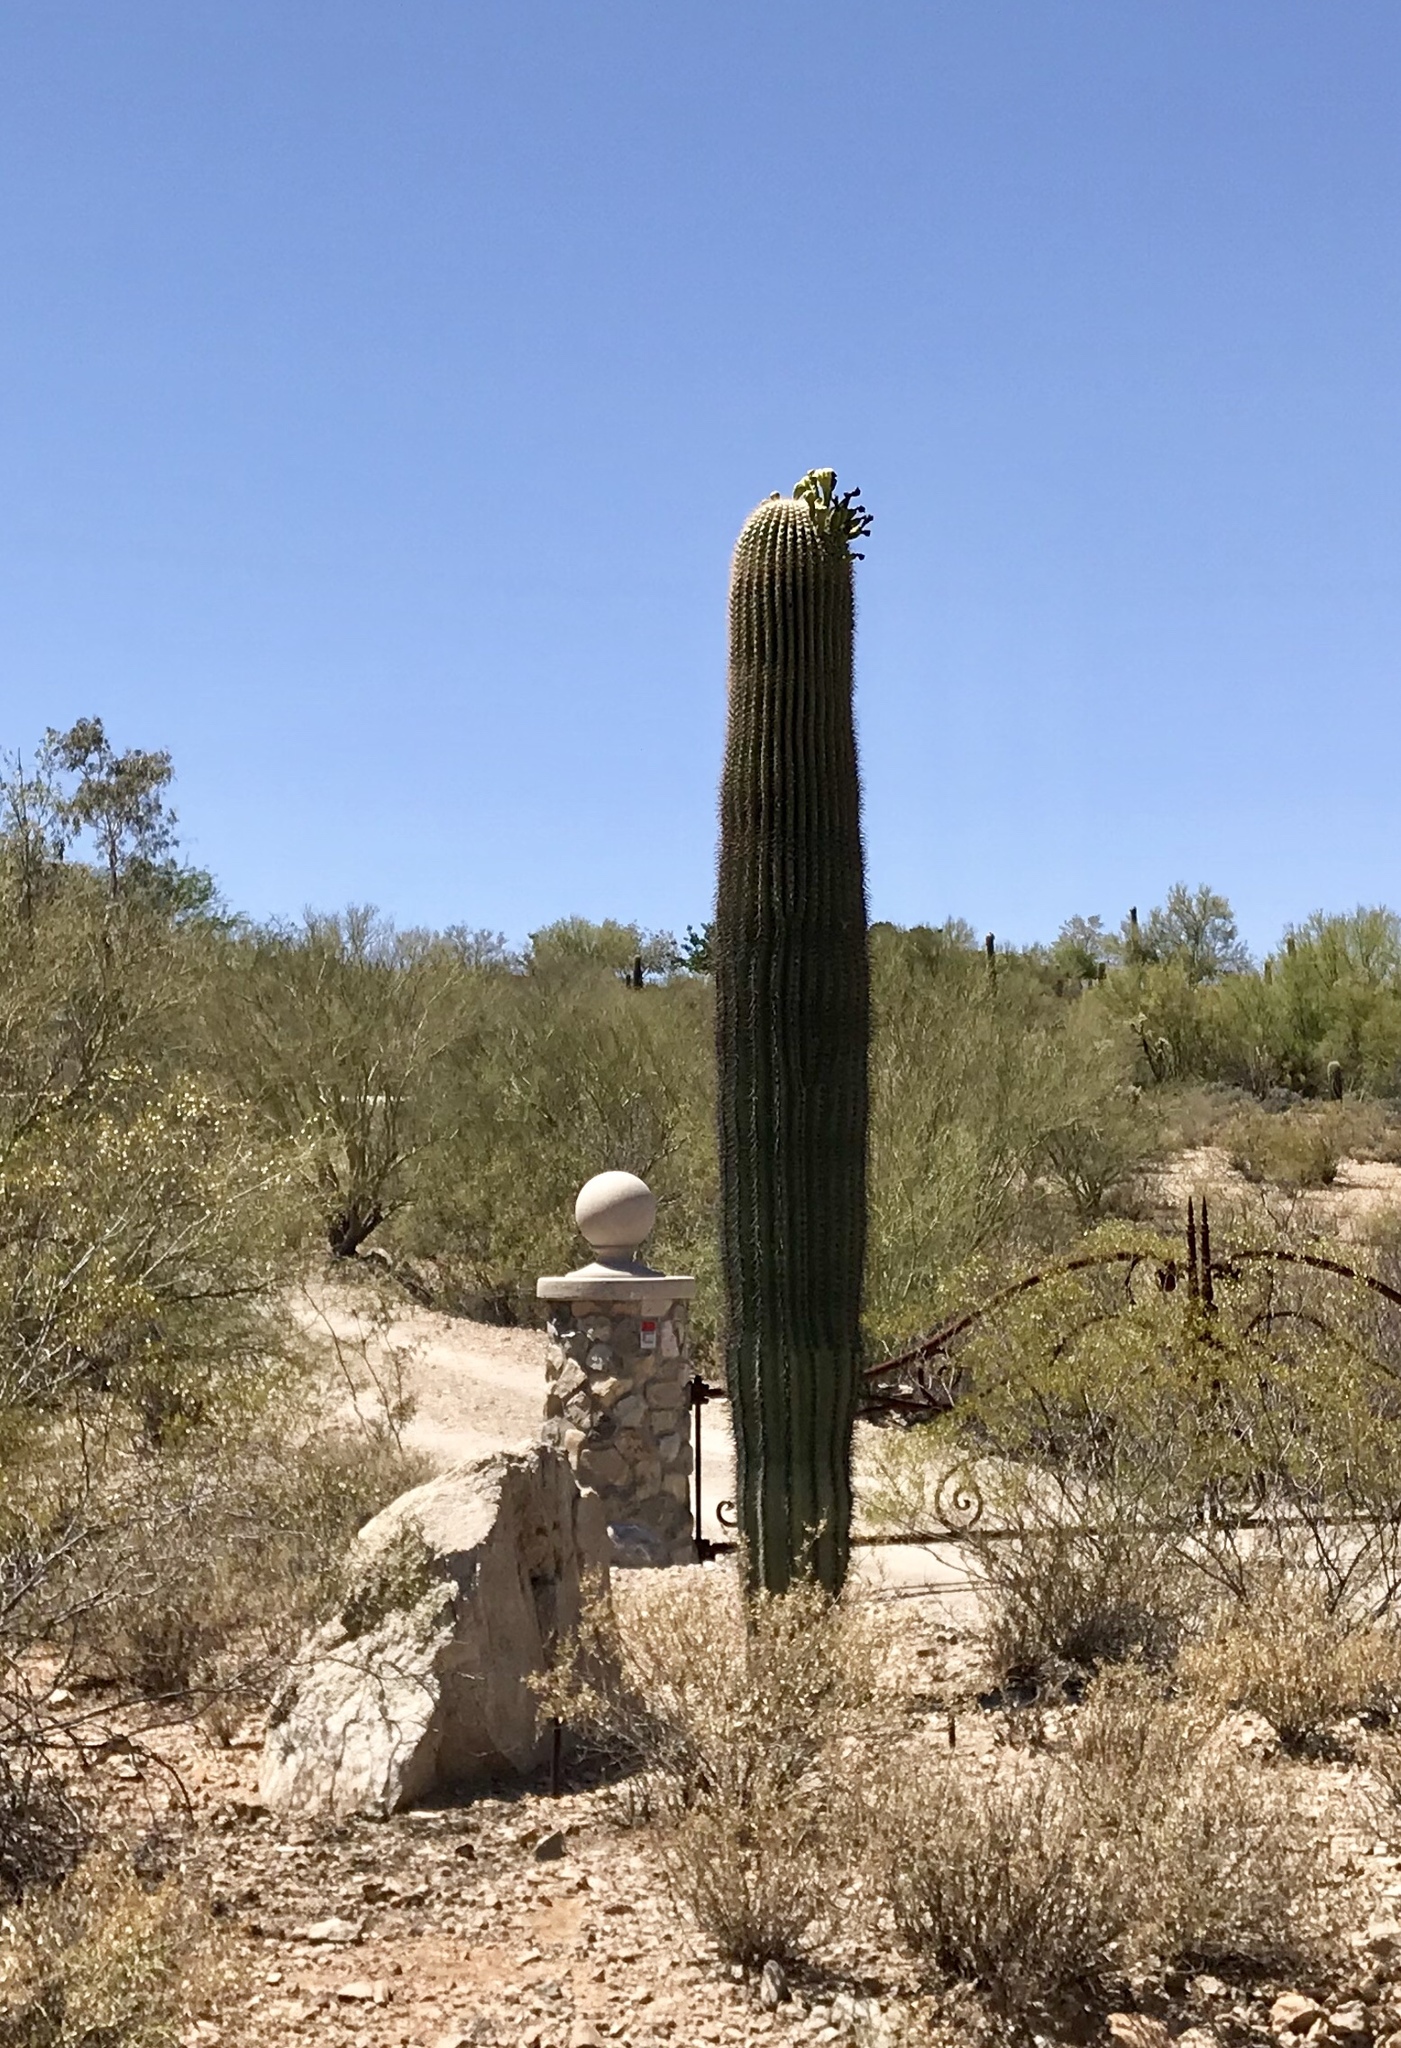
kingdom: Plantae
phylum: Tracheophyta
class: Magnoliopsida
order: Caryophyllales
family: Cactaceae
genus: Carnegiea
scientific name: Carnegiea gigantea
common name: Saguaro
